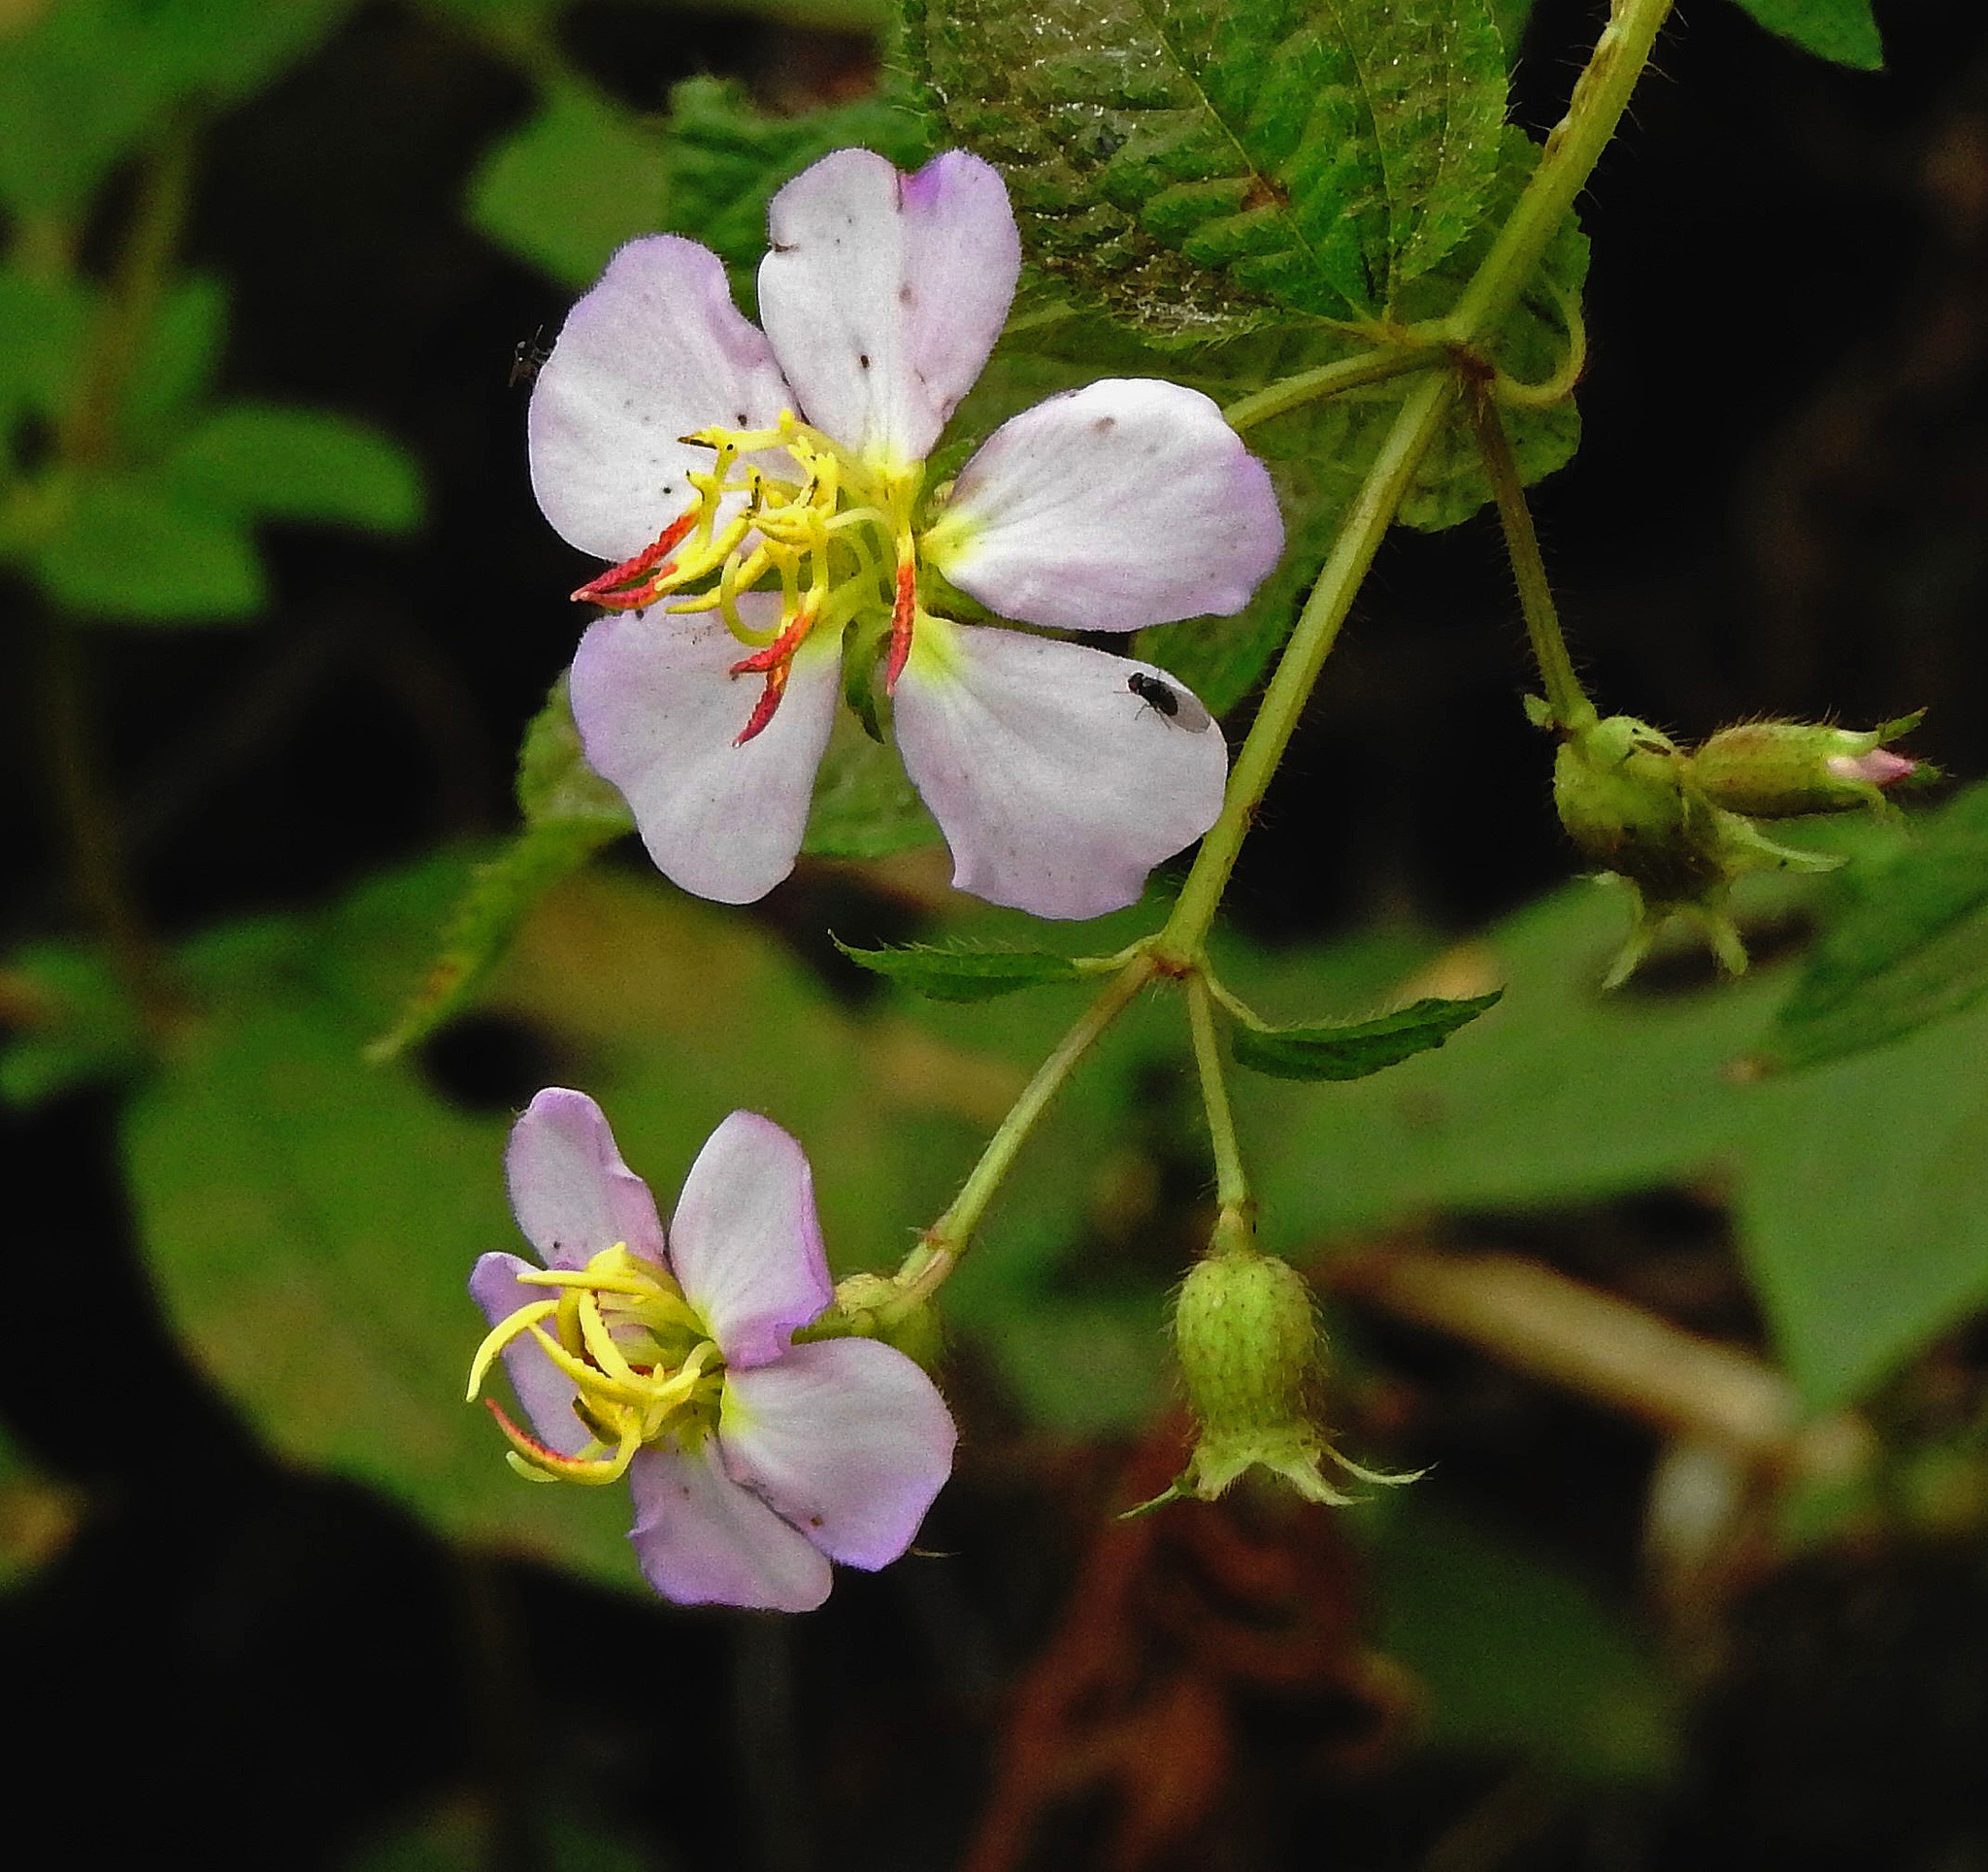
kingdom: Plantae
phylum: Tracheophyta
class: Magnoliopsida
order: Myrtales
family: Melastomataceae
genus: Chaetogastra
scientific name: Chaetogastra brachyphylla
